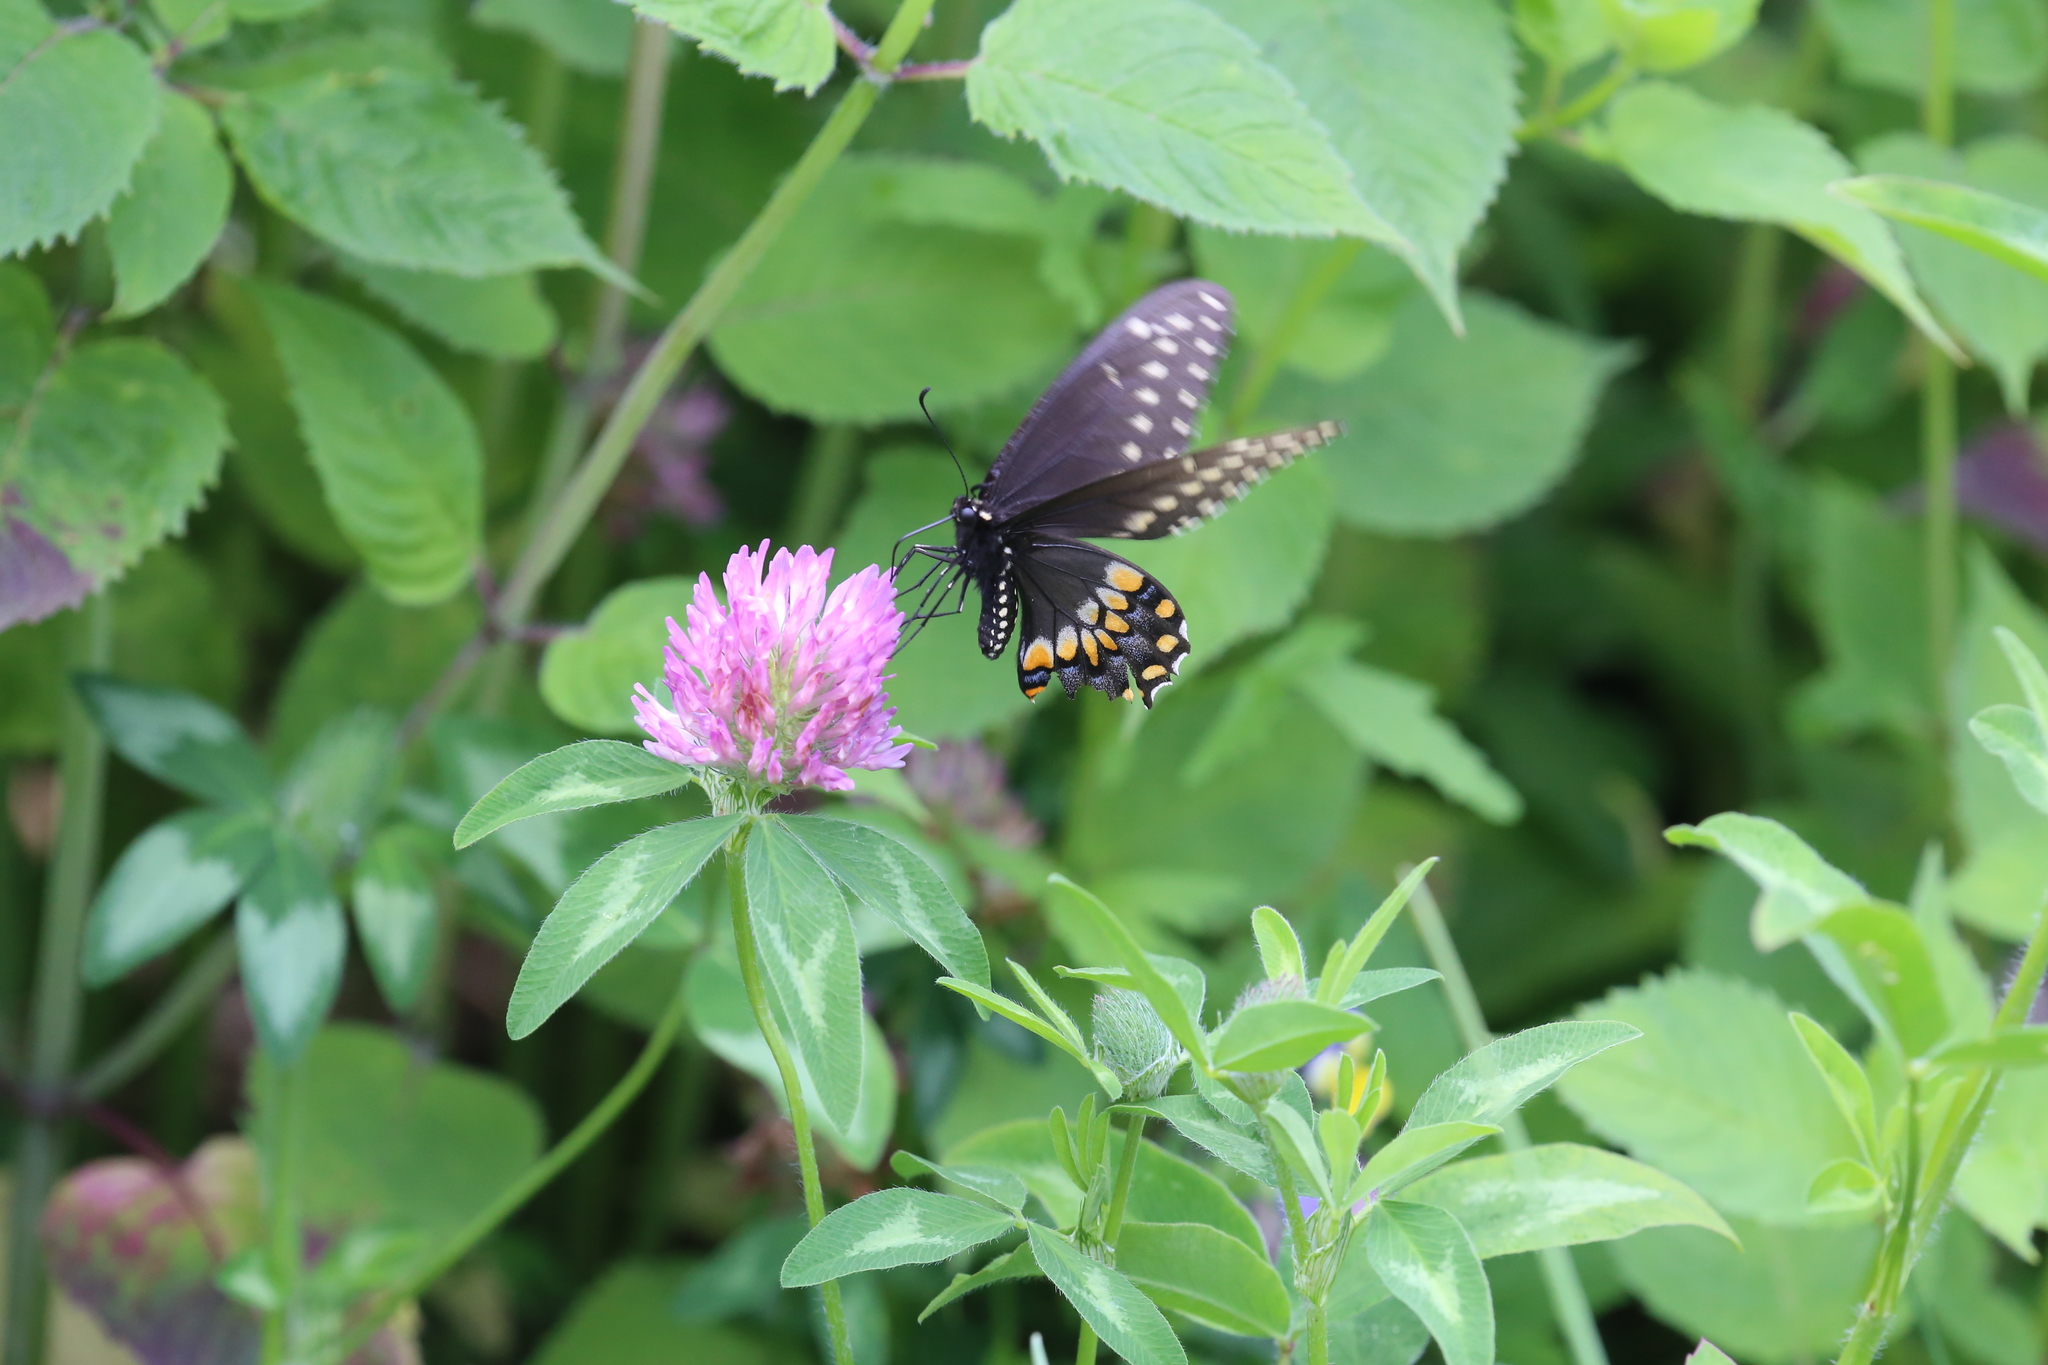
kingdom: Animalia
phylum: Arthropoda
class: Insecta
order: Lepidoptera
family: Papilionidae
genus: Papilio
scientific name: Papilio polyxenes
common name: Black swallowtail
